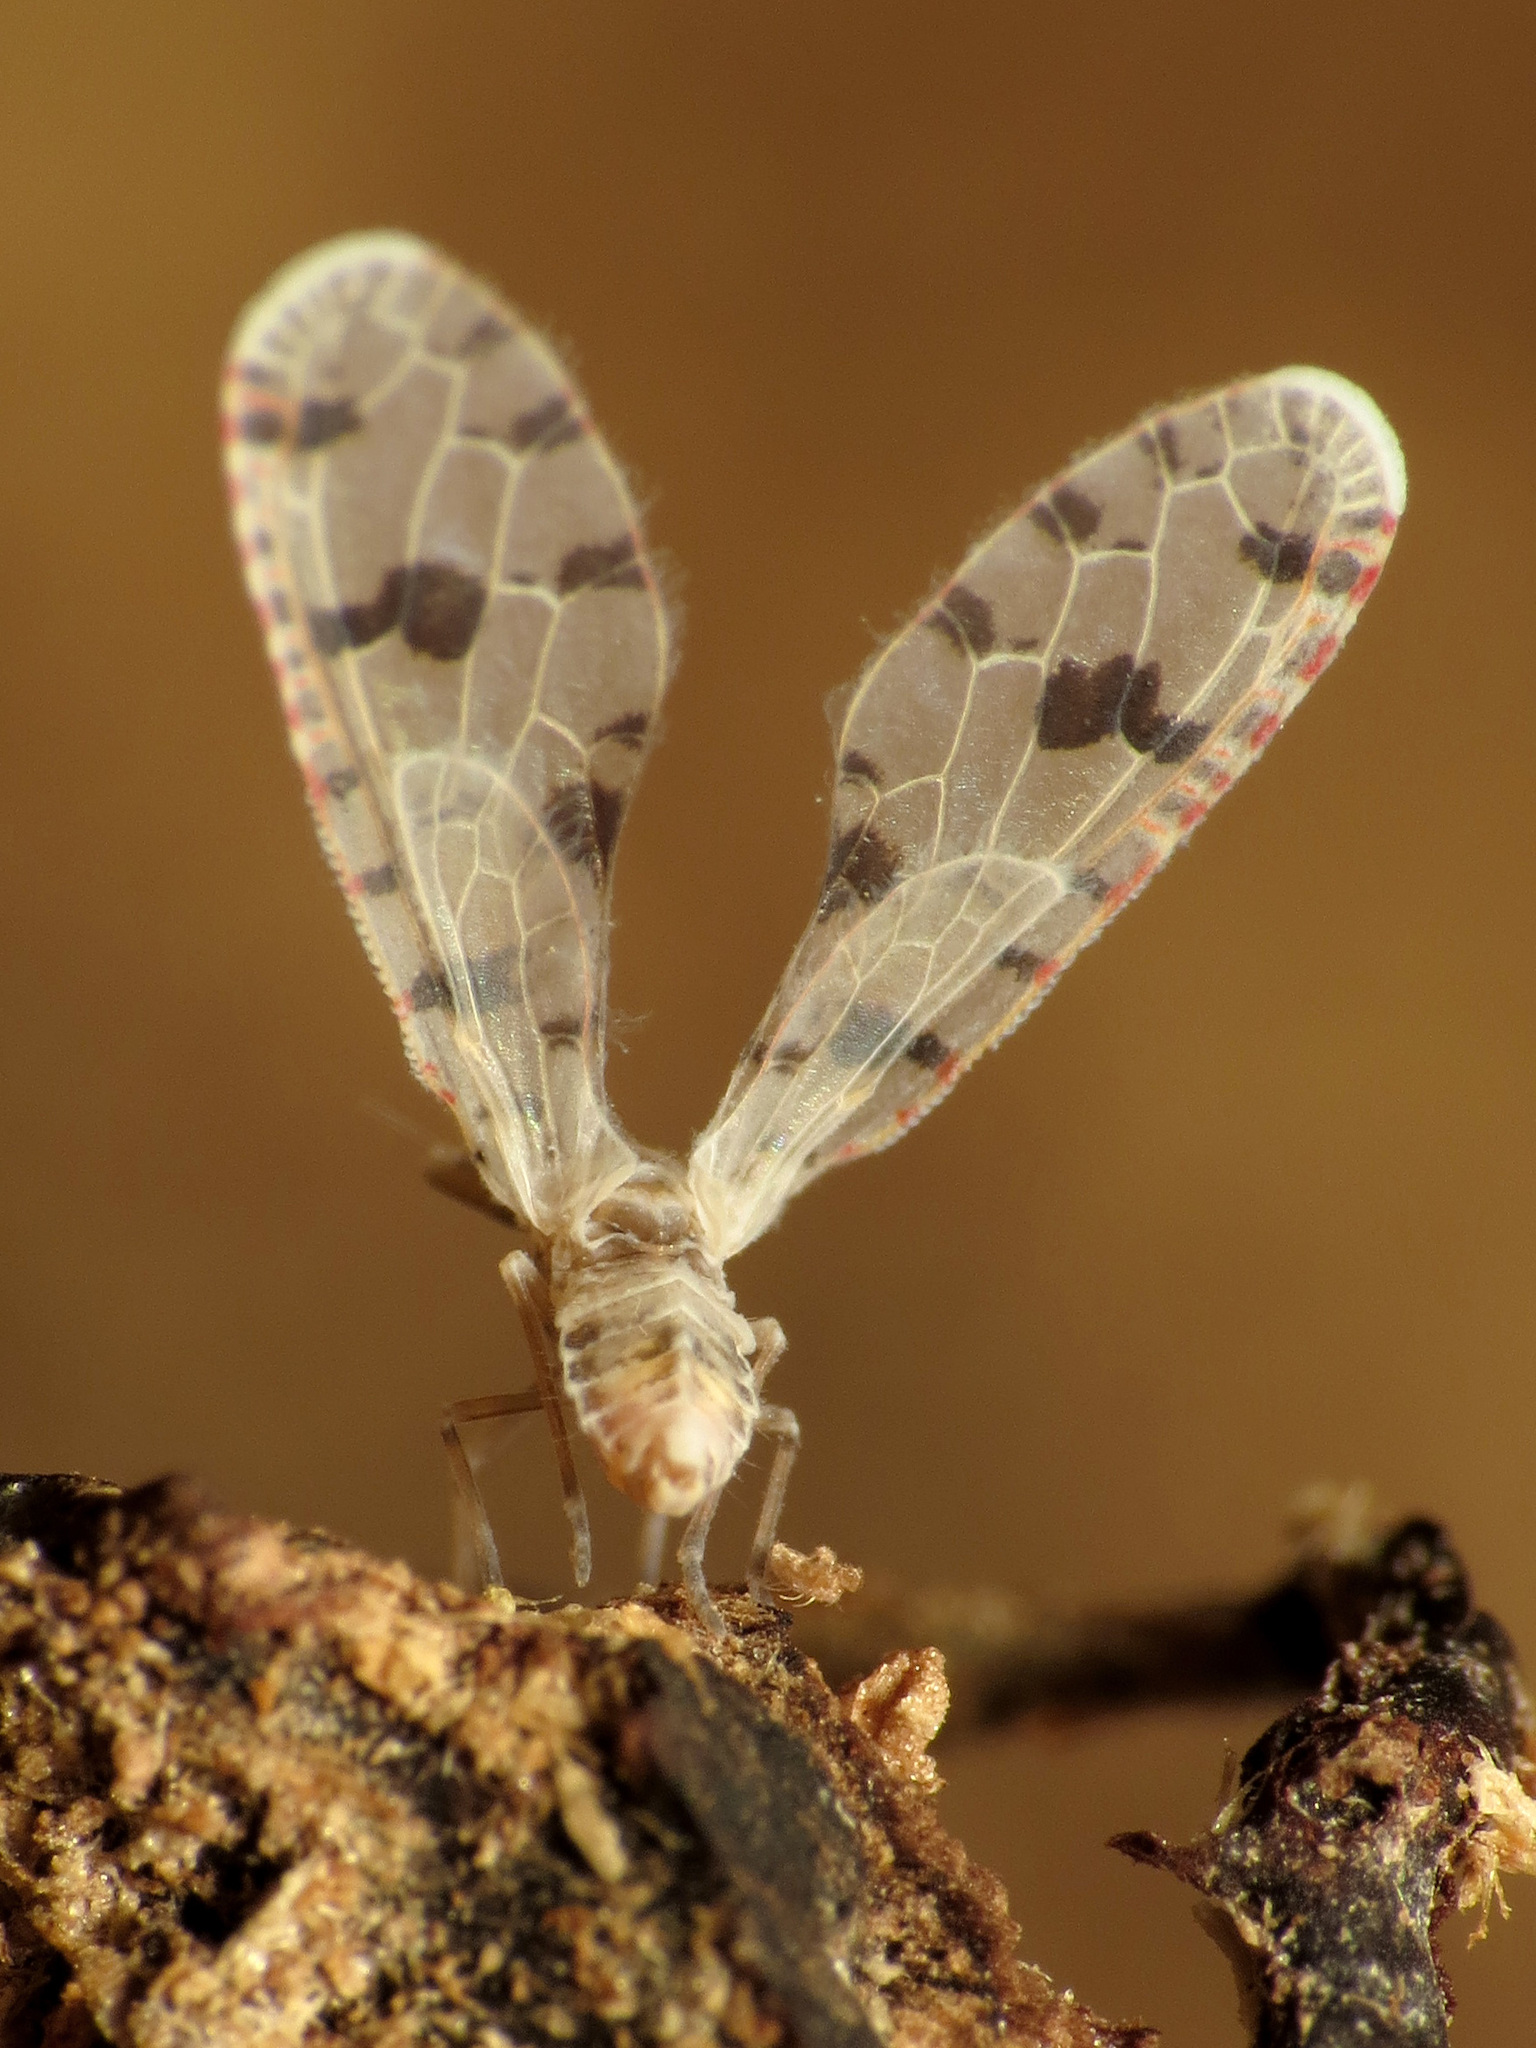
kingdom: Animalia
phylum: Arthropoda
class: Insecta
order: Hemiptera
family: Derbidae
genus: Sikaiana
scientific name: Sikaiana harti
